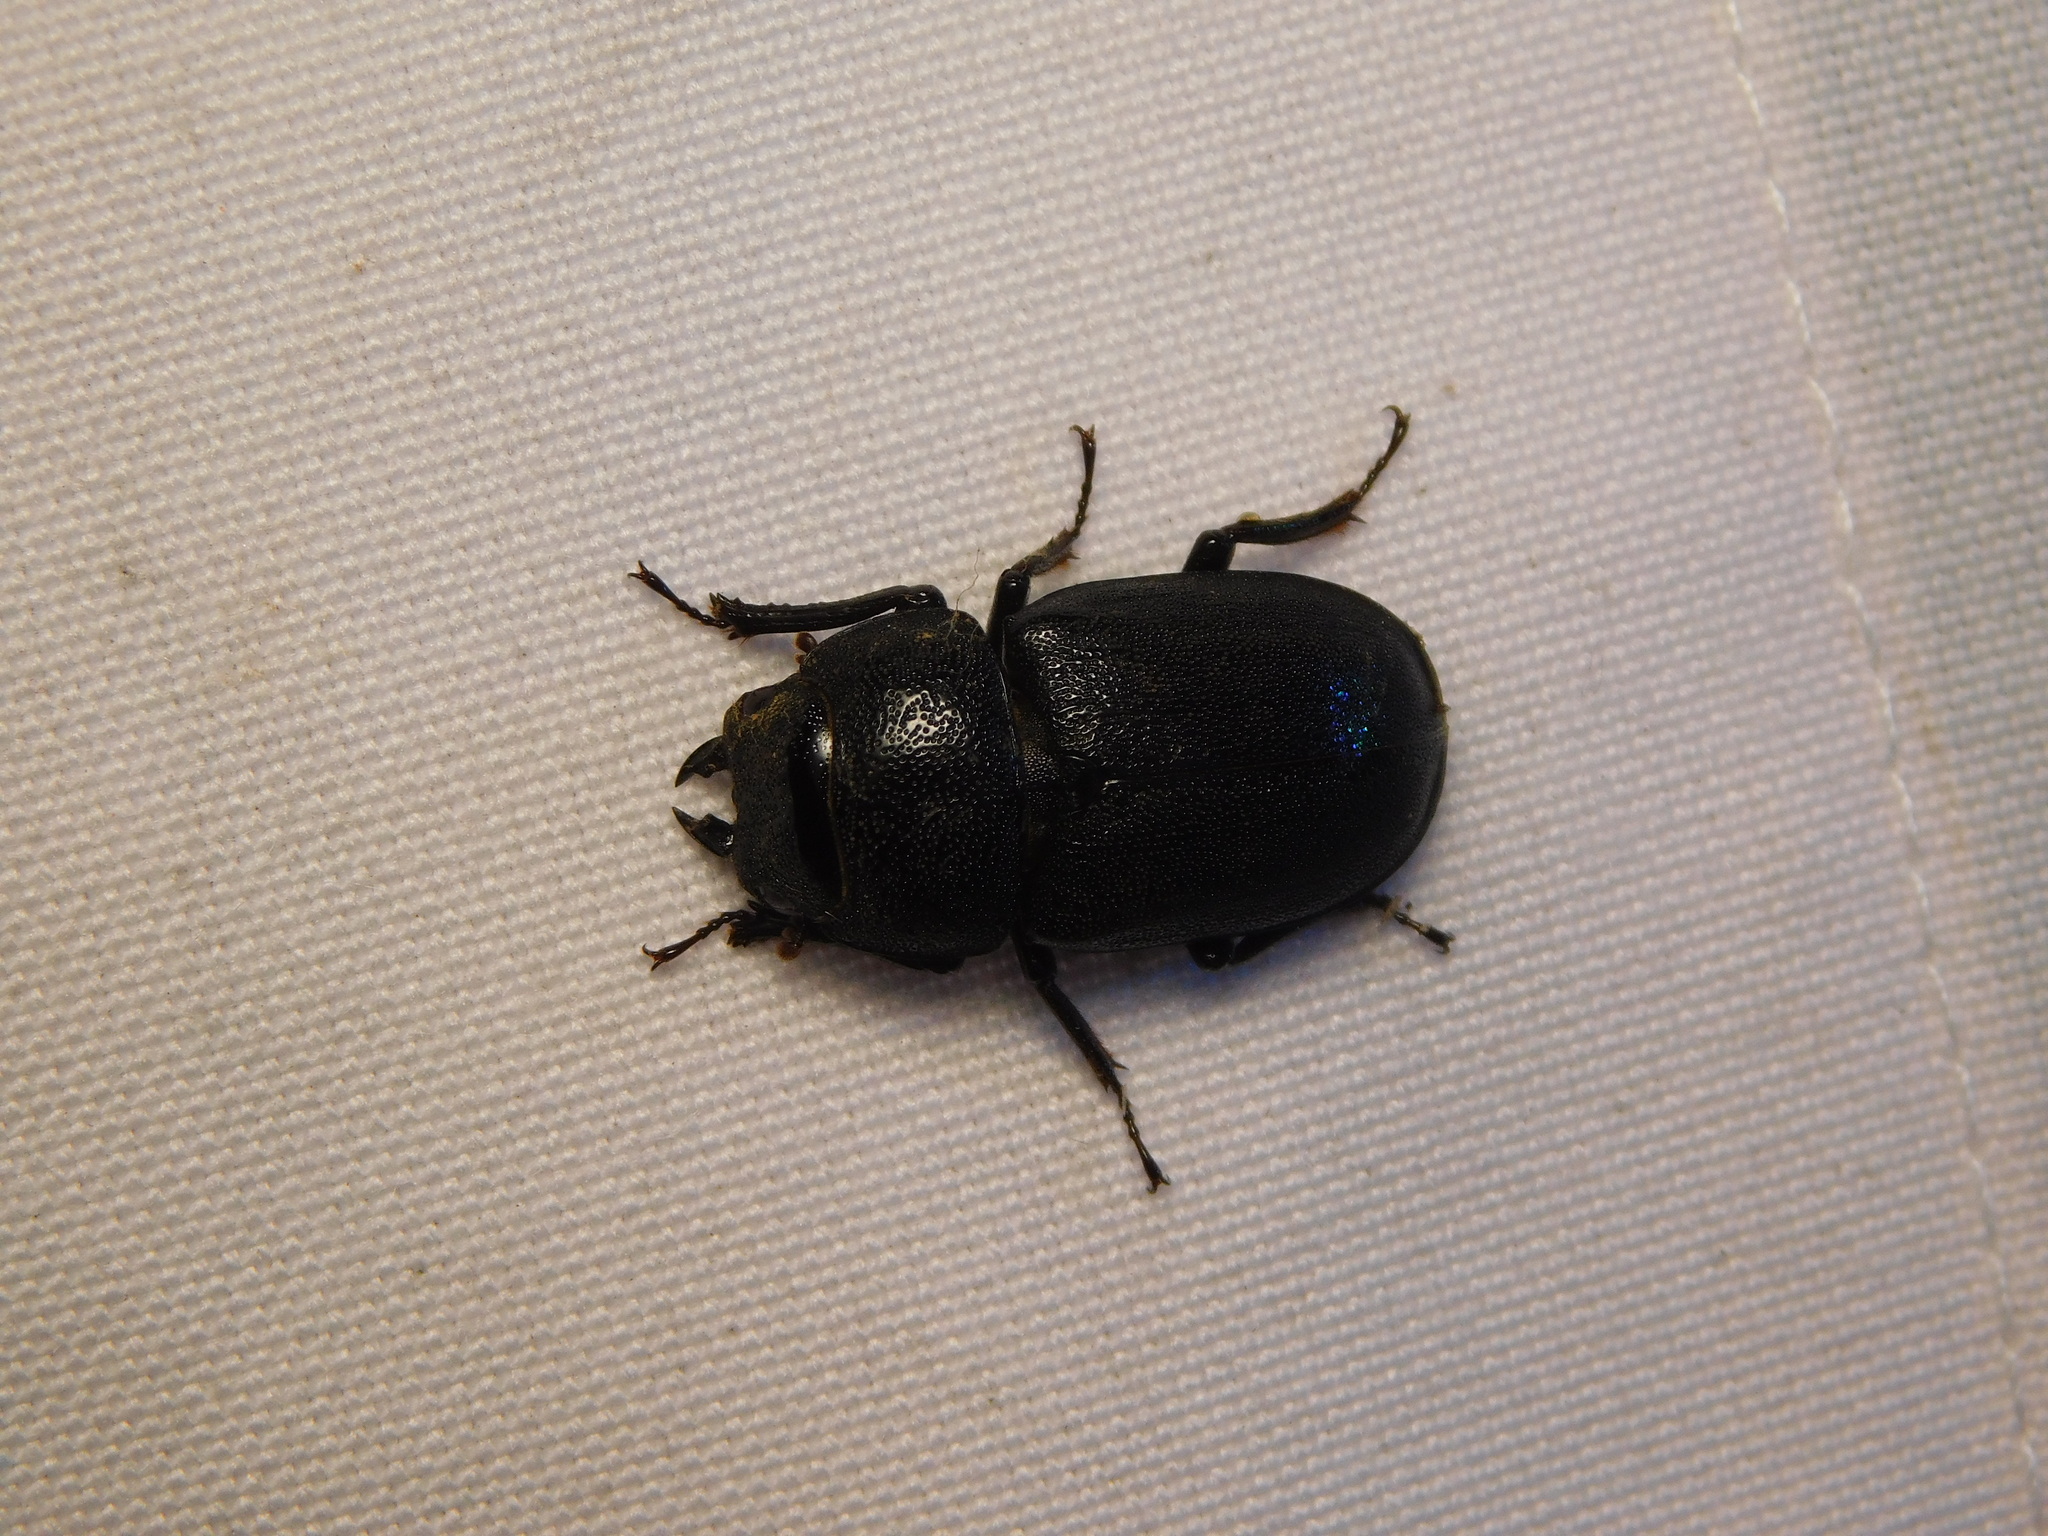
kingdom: Animalia
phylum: Arthropoda
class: Insecta
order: Coleoptera
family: Lucanidae
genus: Prosopocoilus
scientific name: Prosopocoilus candezei
